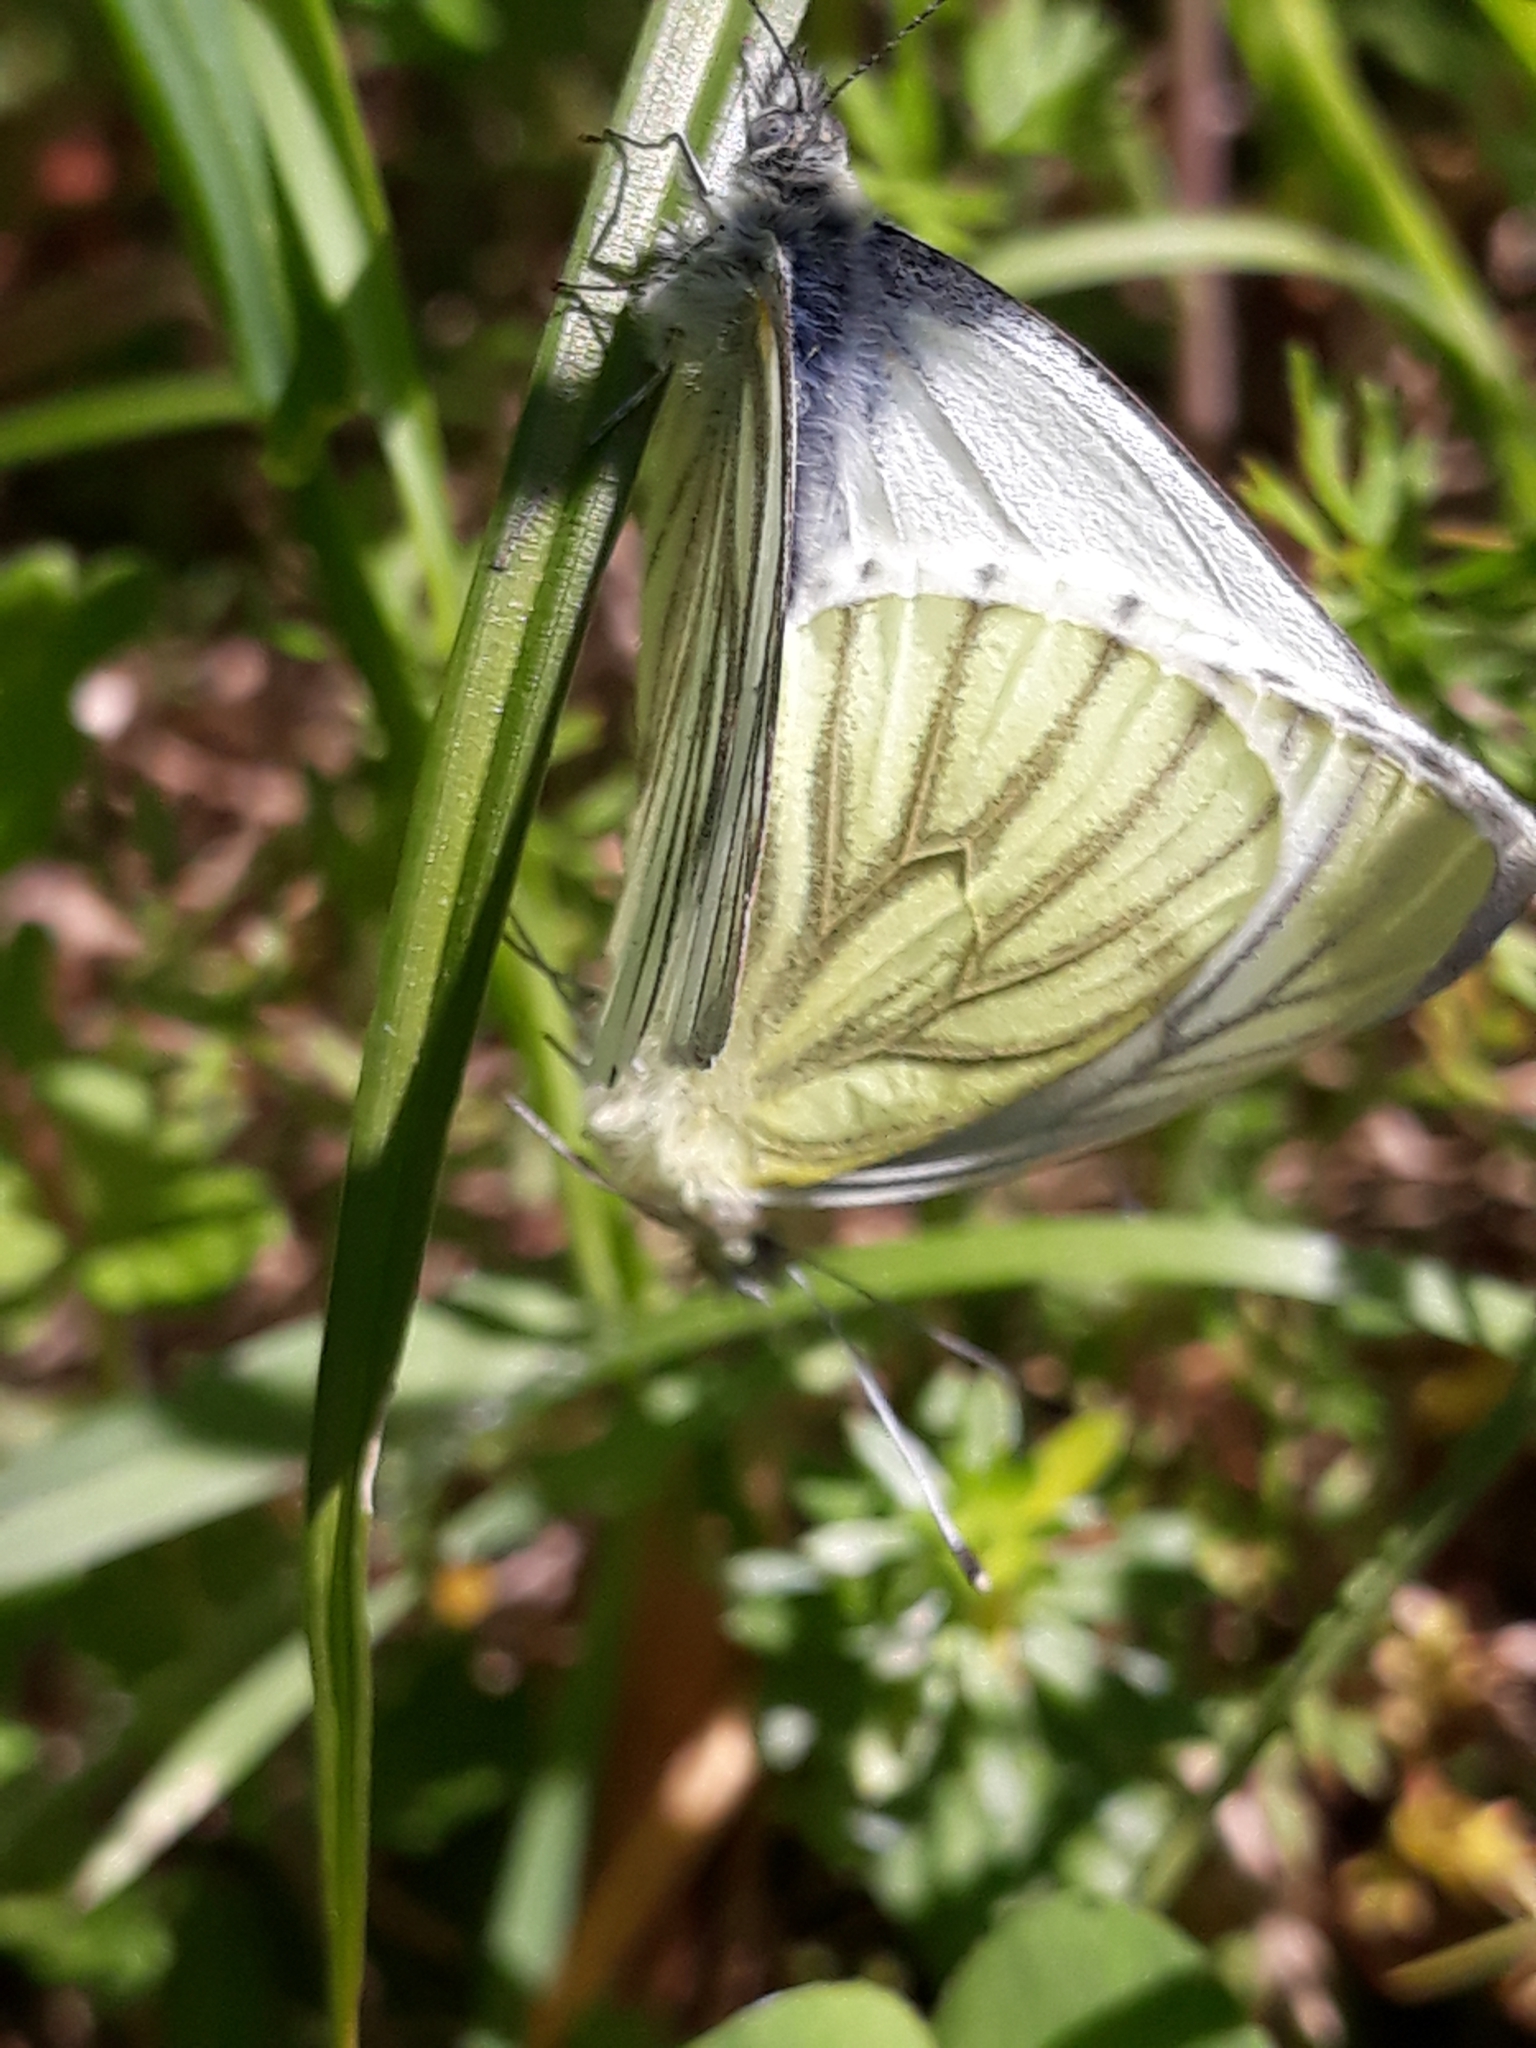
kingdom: Animalia
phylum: Arthropoda
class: Insecta
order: Lepidoptera
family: Pieridae
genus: Pieris
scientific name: Pieris napi
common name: Green-veined white
